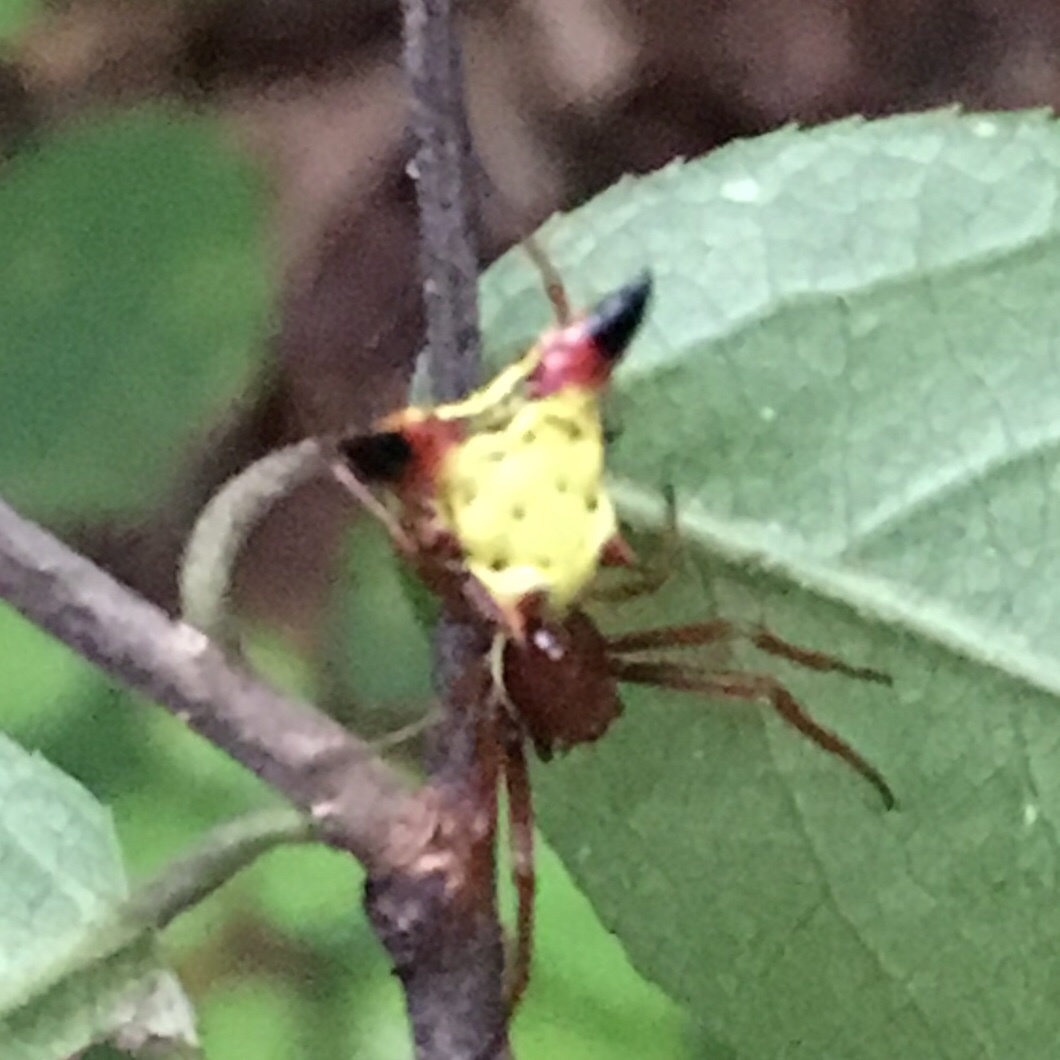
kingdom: Animalia
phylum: Arthropoda
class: Arachnida
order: Araneae
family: Araneidae
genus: Micrathena
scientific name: Micrathena sagittata
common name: Orb weavers
